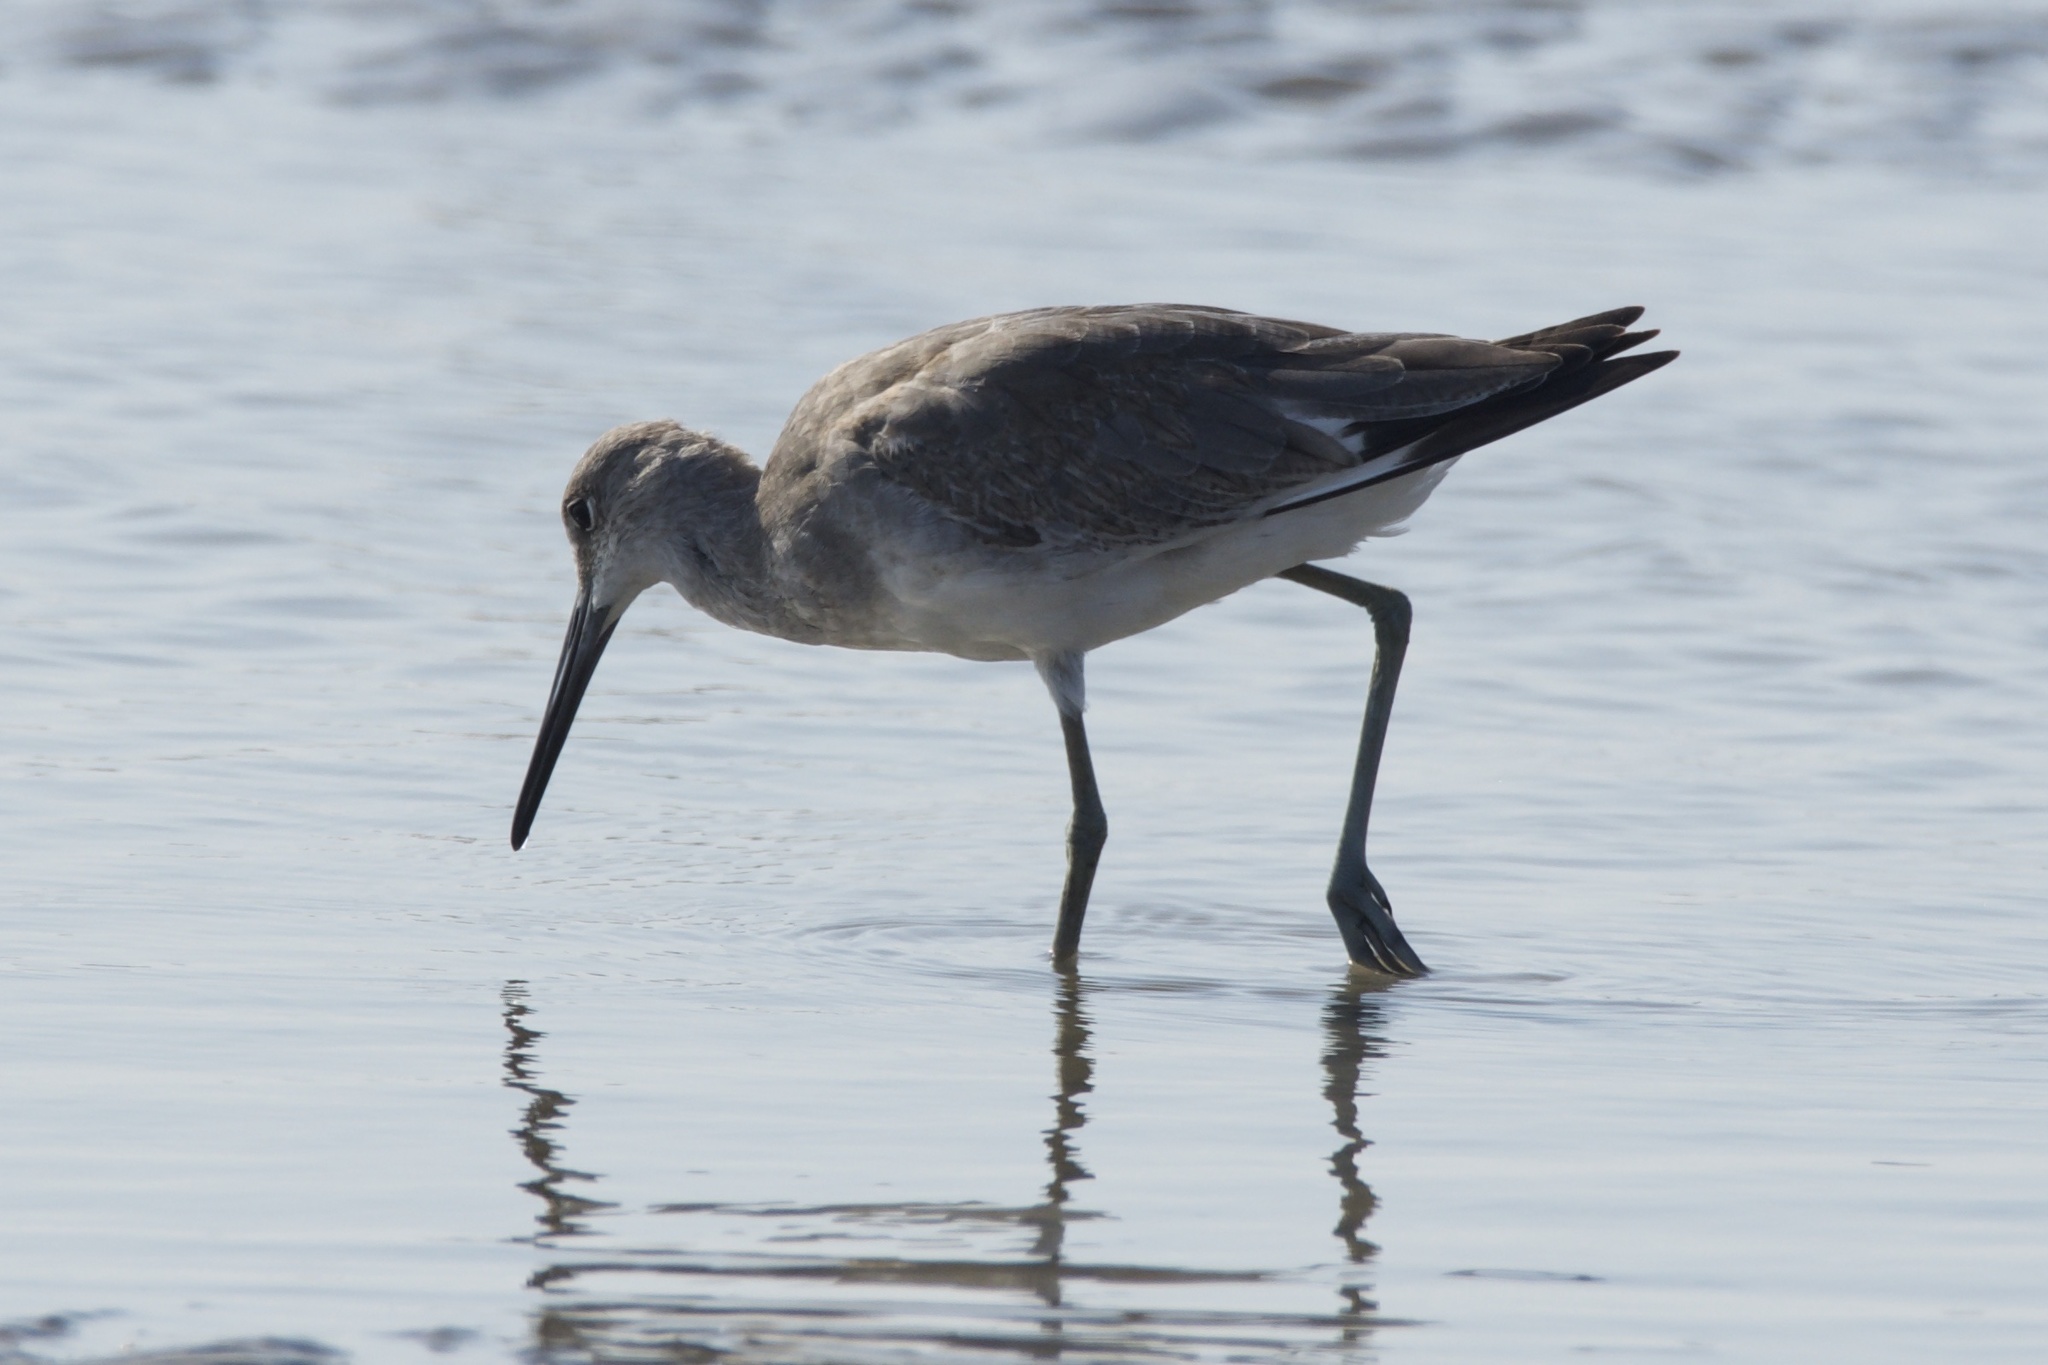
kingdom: Animalia
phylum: Chordata
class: Aves
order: Charadriiformes
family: Scolopacidae
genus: Tringa
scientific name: Tringa semipalmata
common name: Willet
